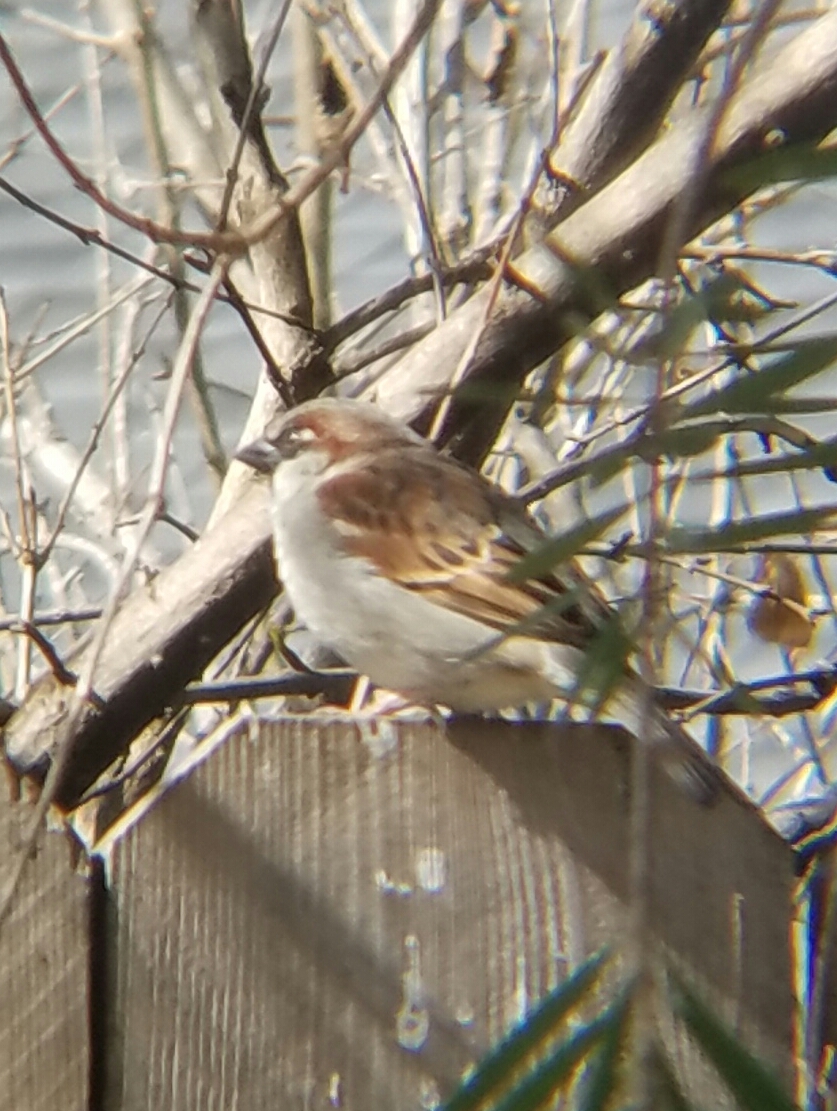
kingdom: Animalia
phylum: Chordata
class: Aves
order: Passeriformes
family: Passeridae
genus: Passer
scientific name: Passer domesticus
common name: House sparrow
